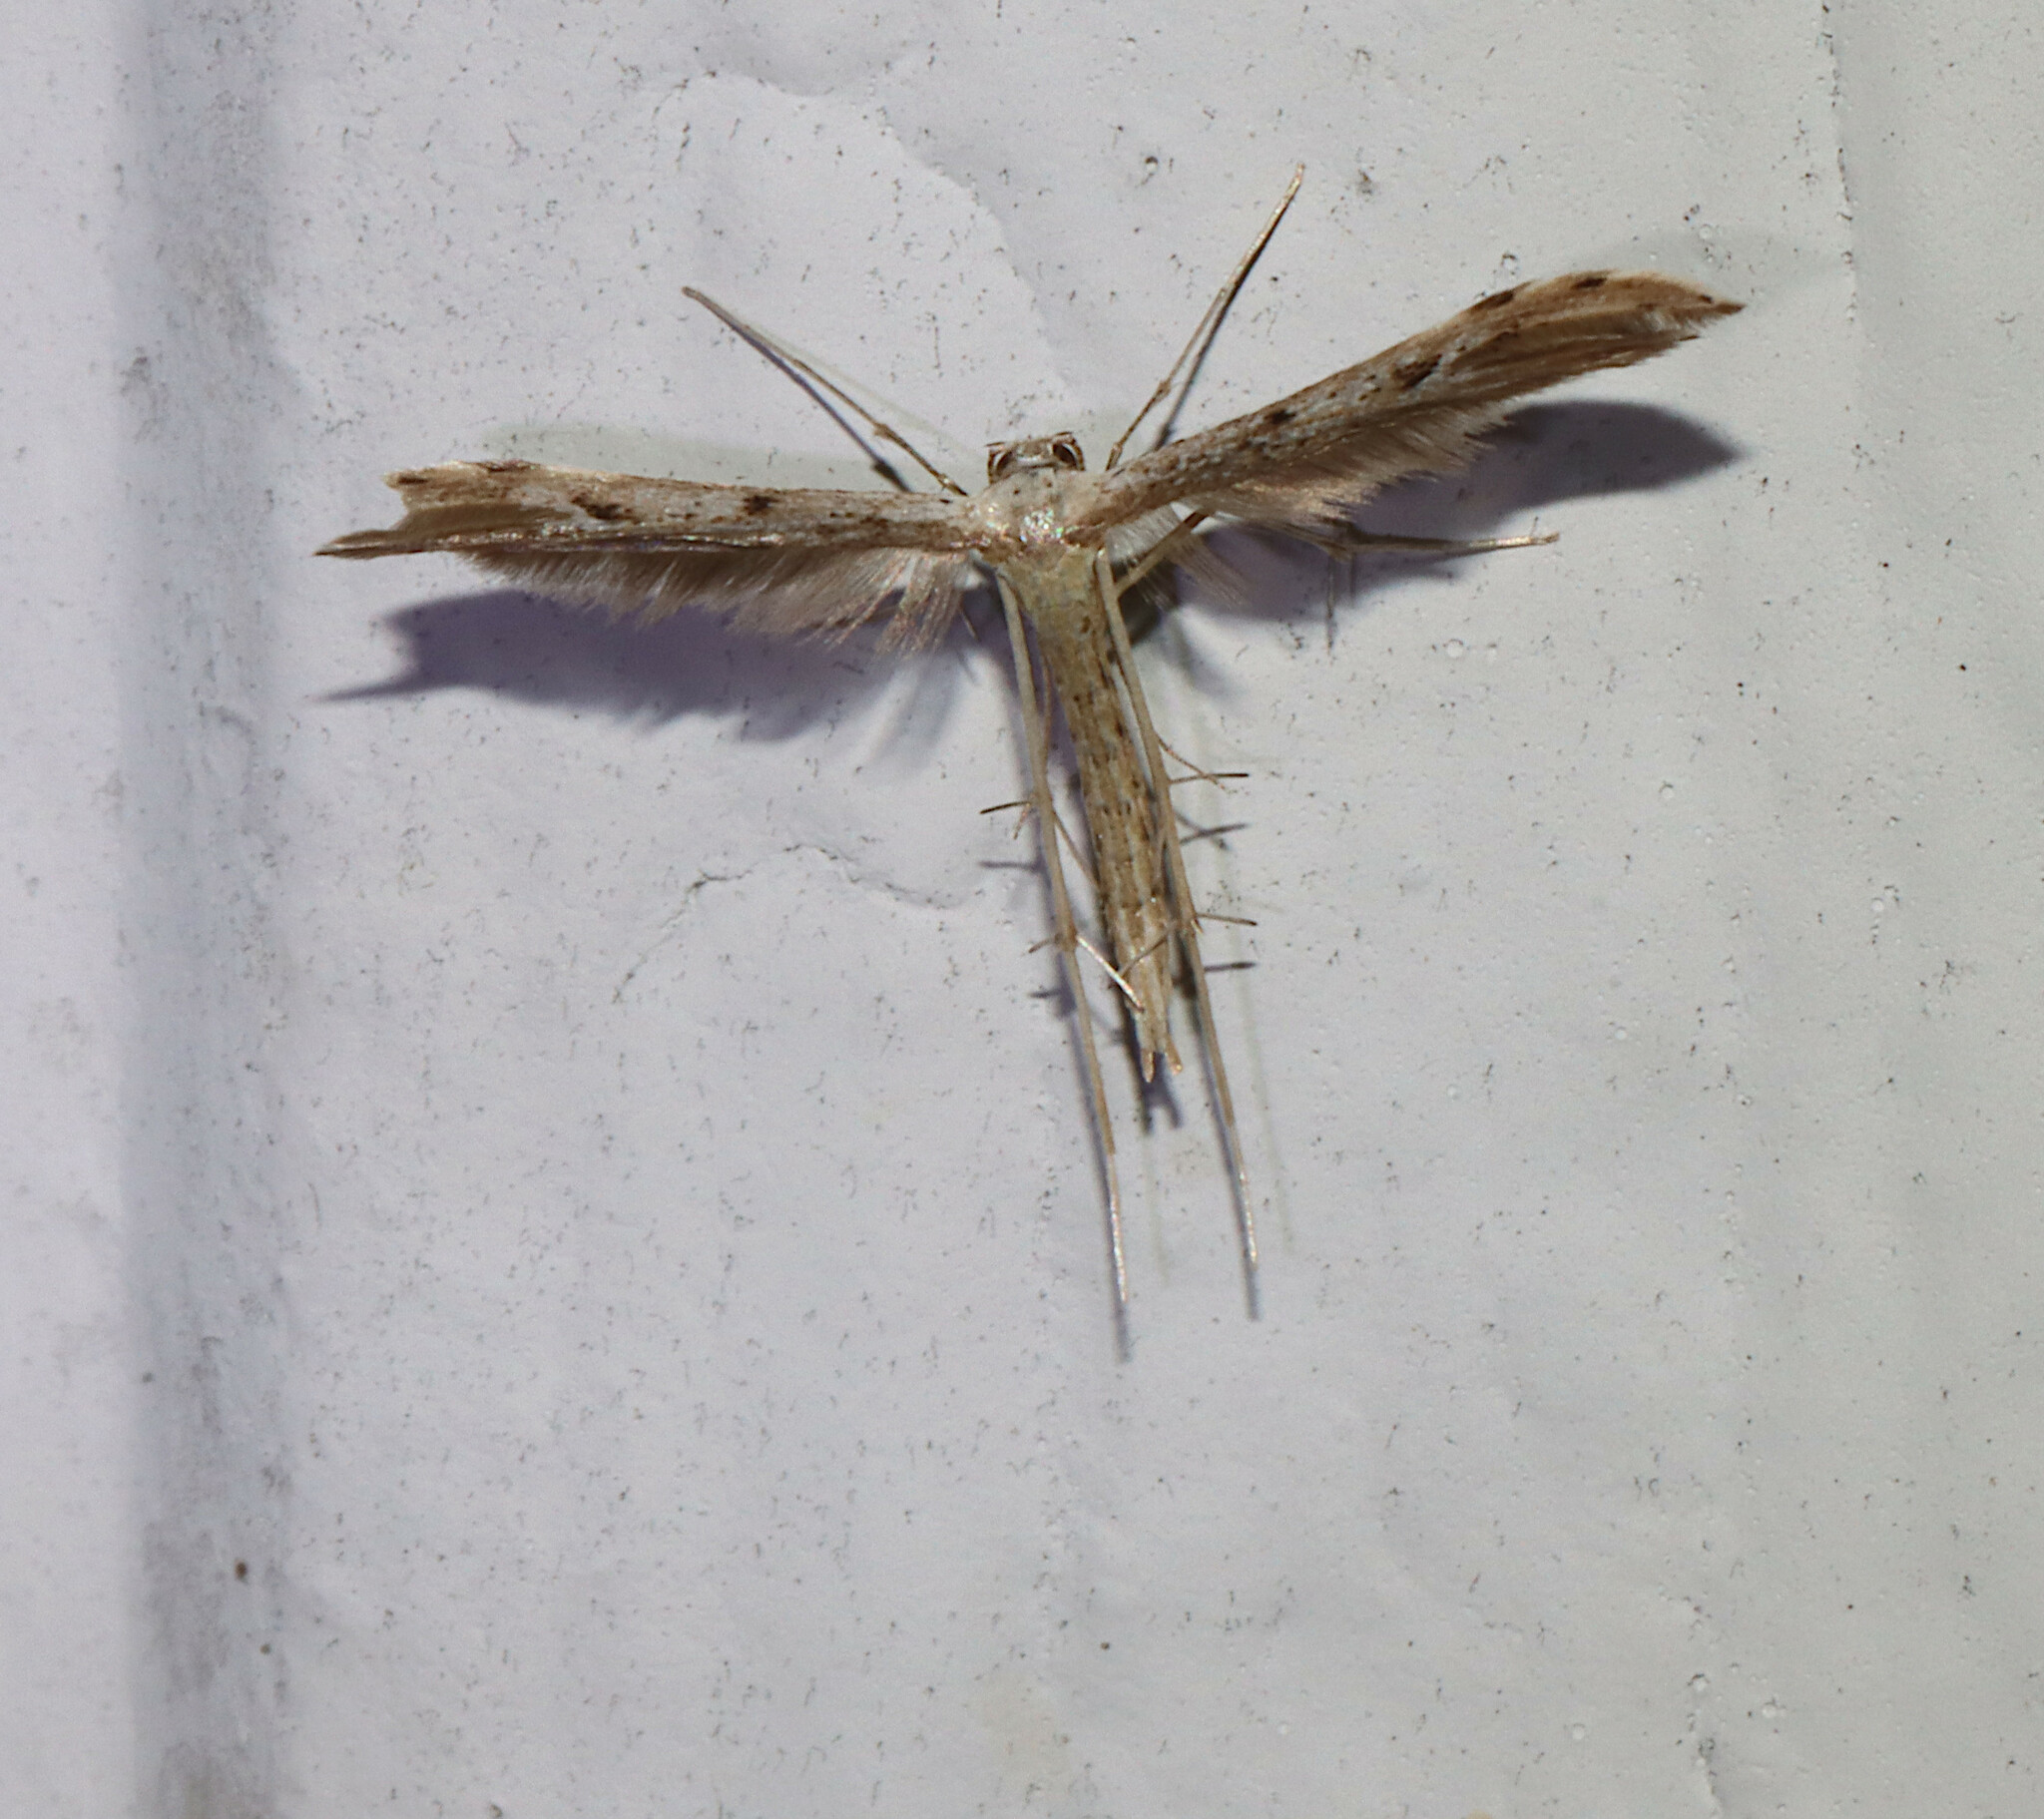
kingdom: Animalia
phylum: Arthropoda
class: Insecta
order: Lepidoptera
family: Pterophoridae
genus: Pselnophorus
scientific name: Pselnophorus belfragei
